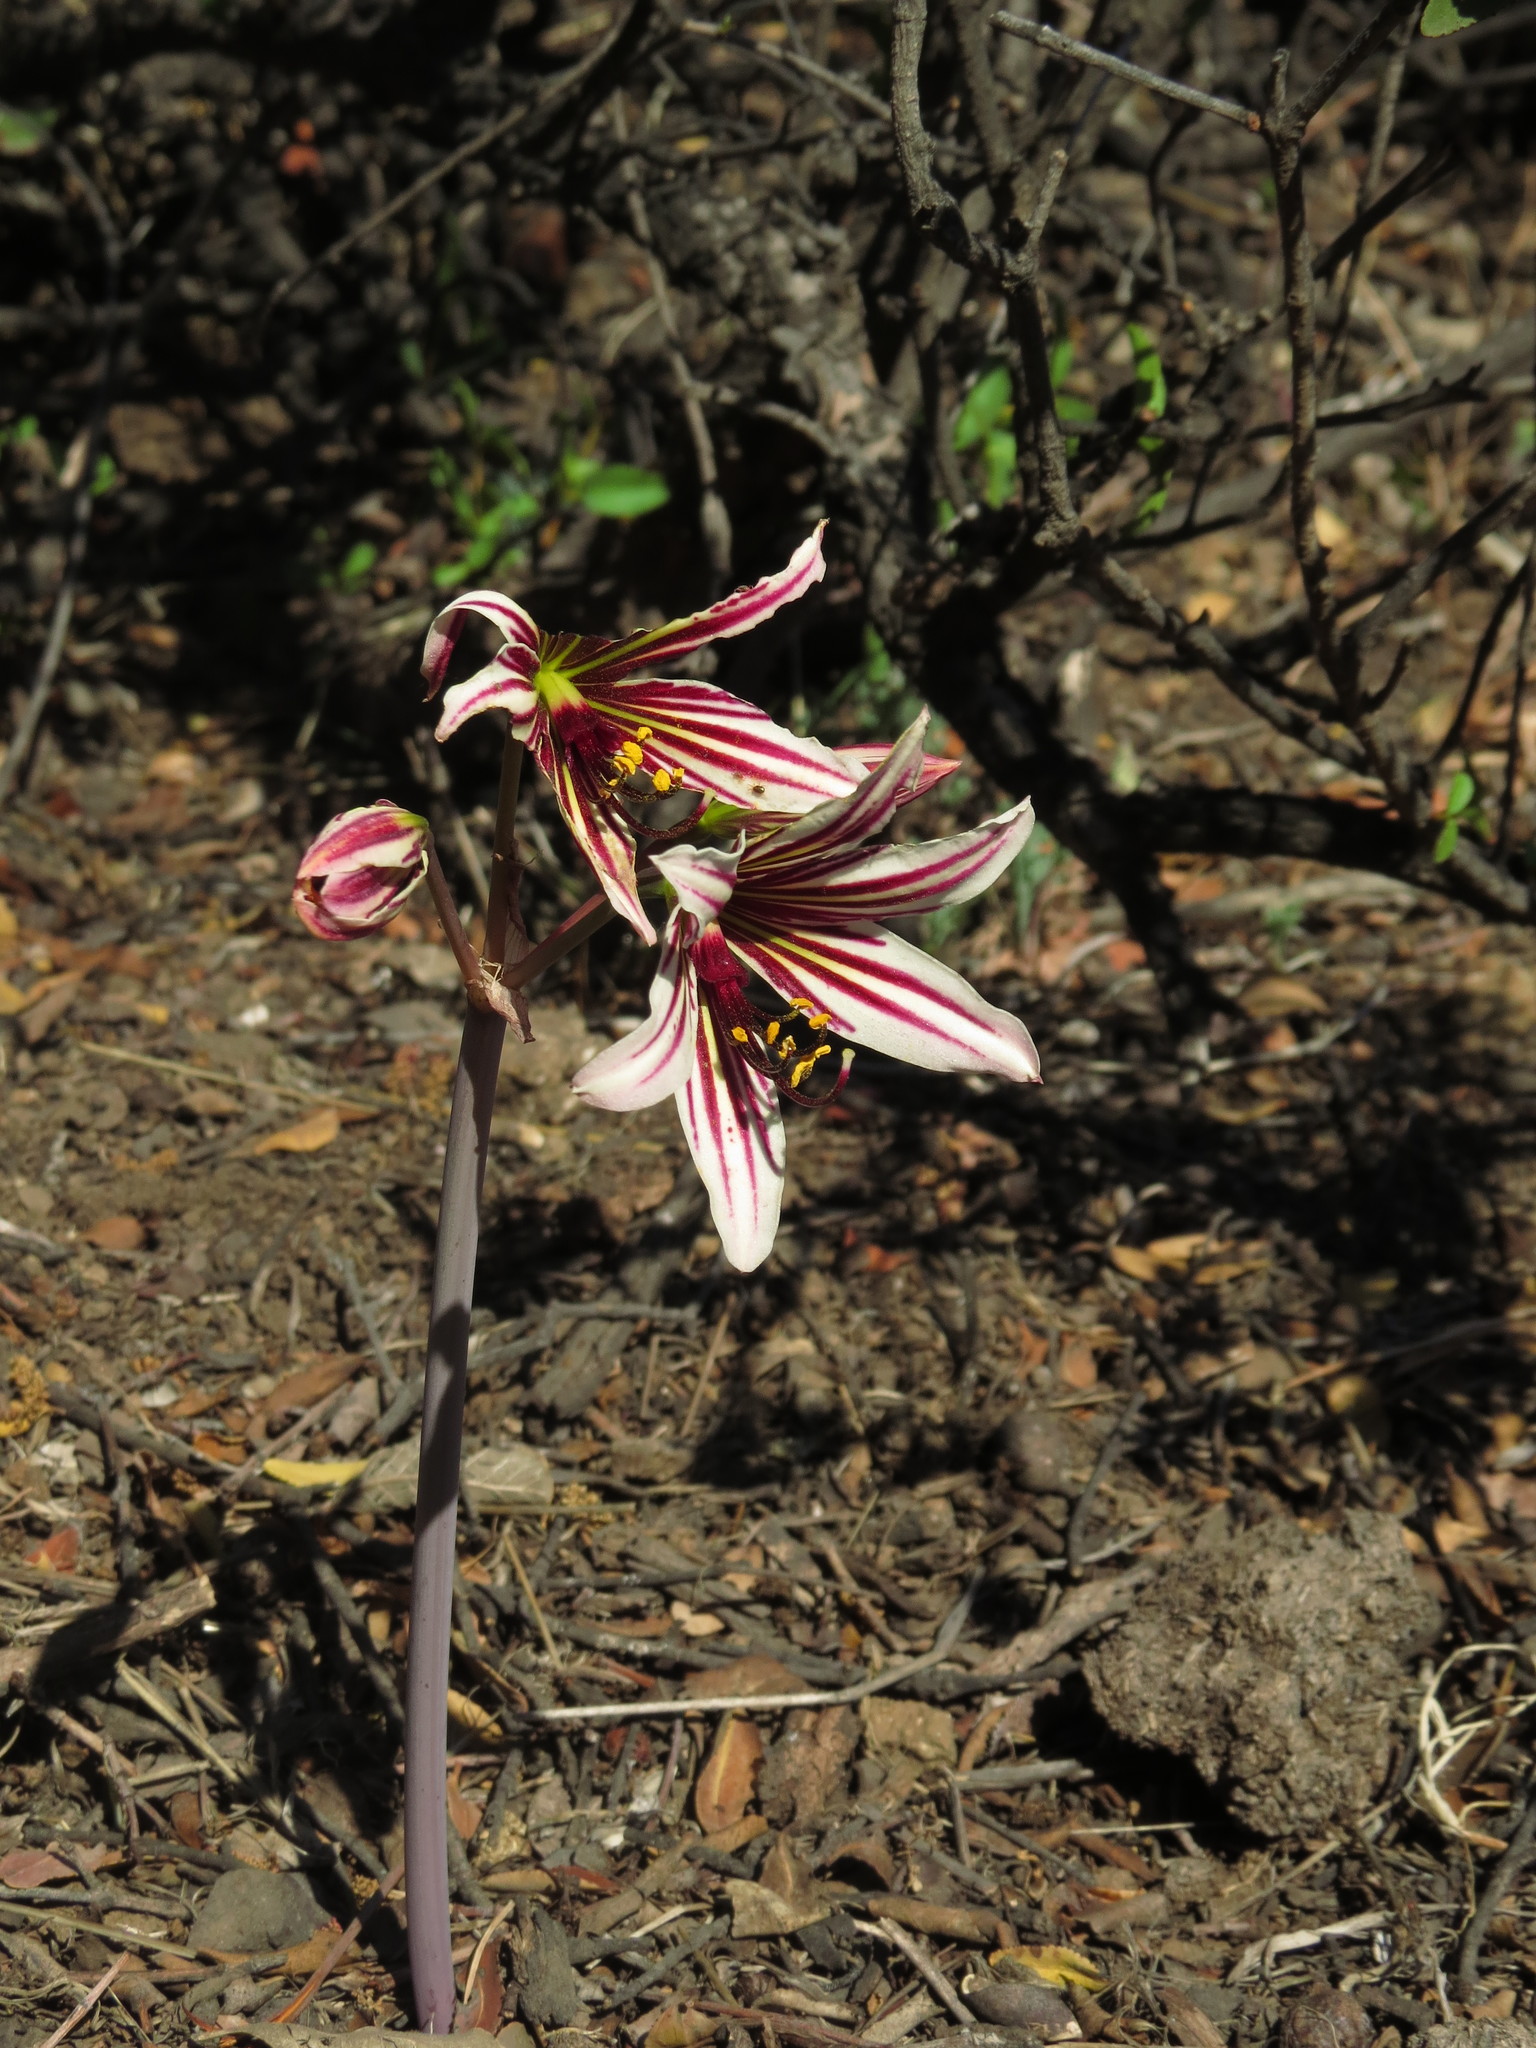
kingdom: Plantae
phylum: Tracheophyta
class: Liliopsida
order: Asparagales
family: Amaryllidaceae
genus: Phycella
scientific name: Phycella arzae
